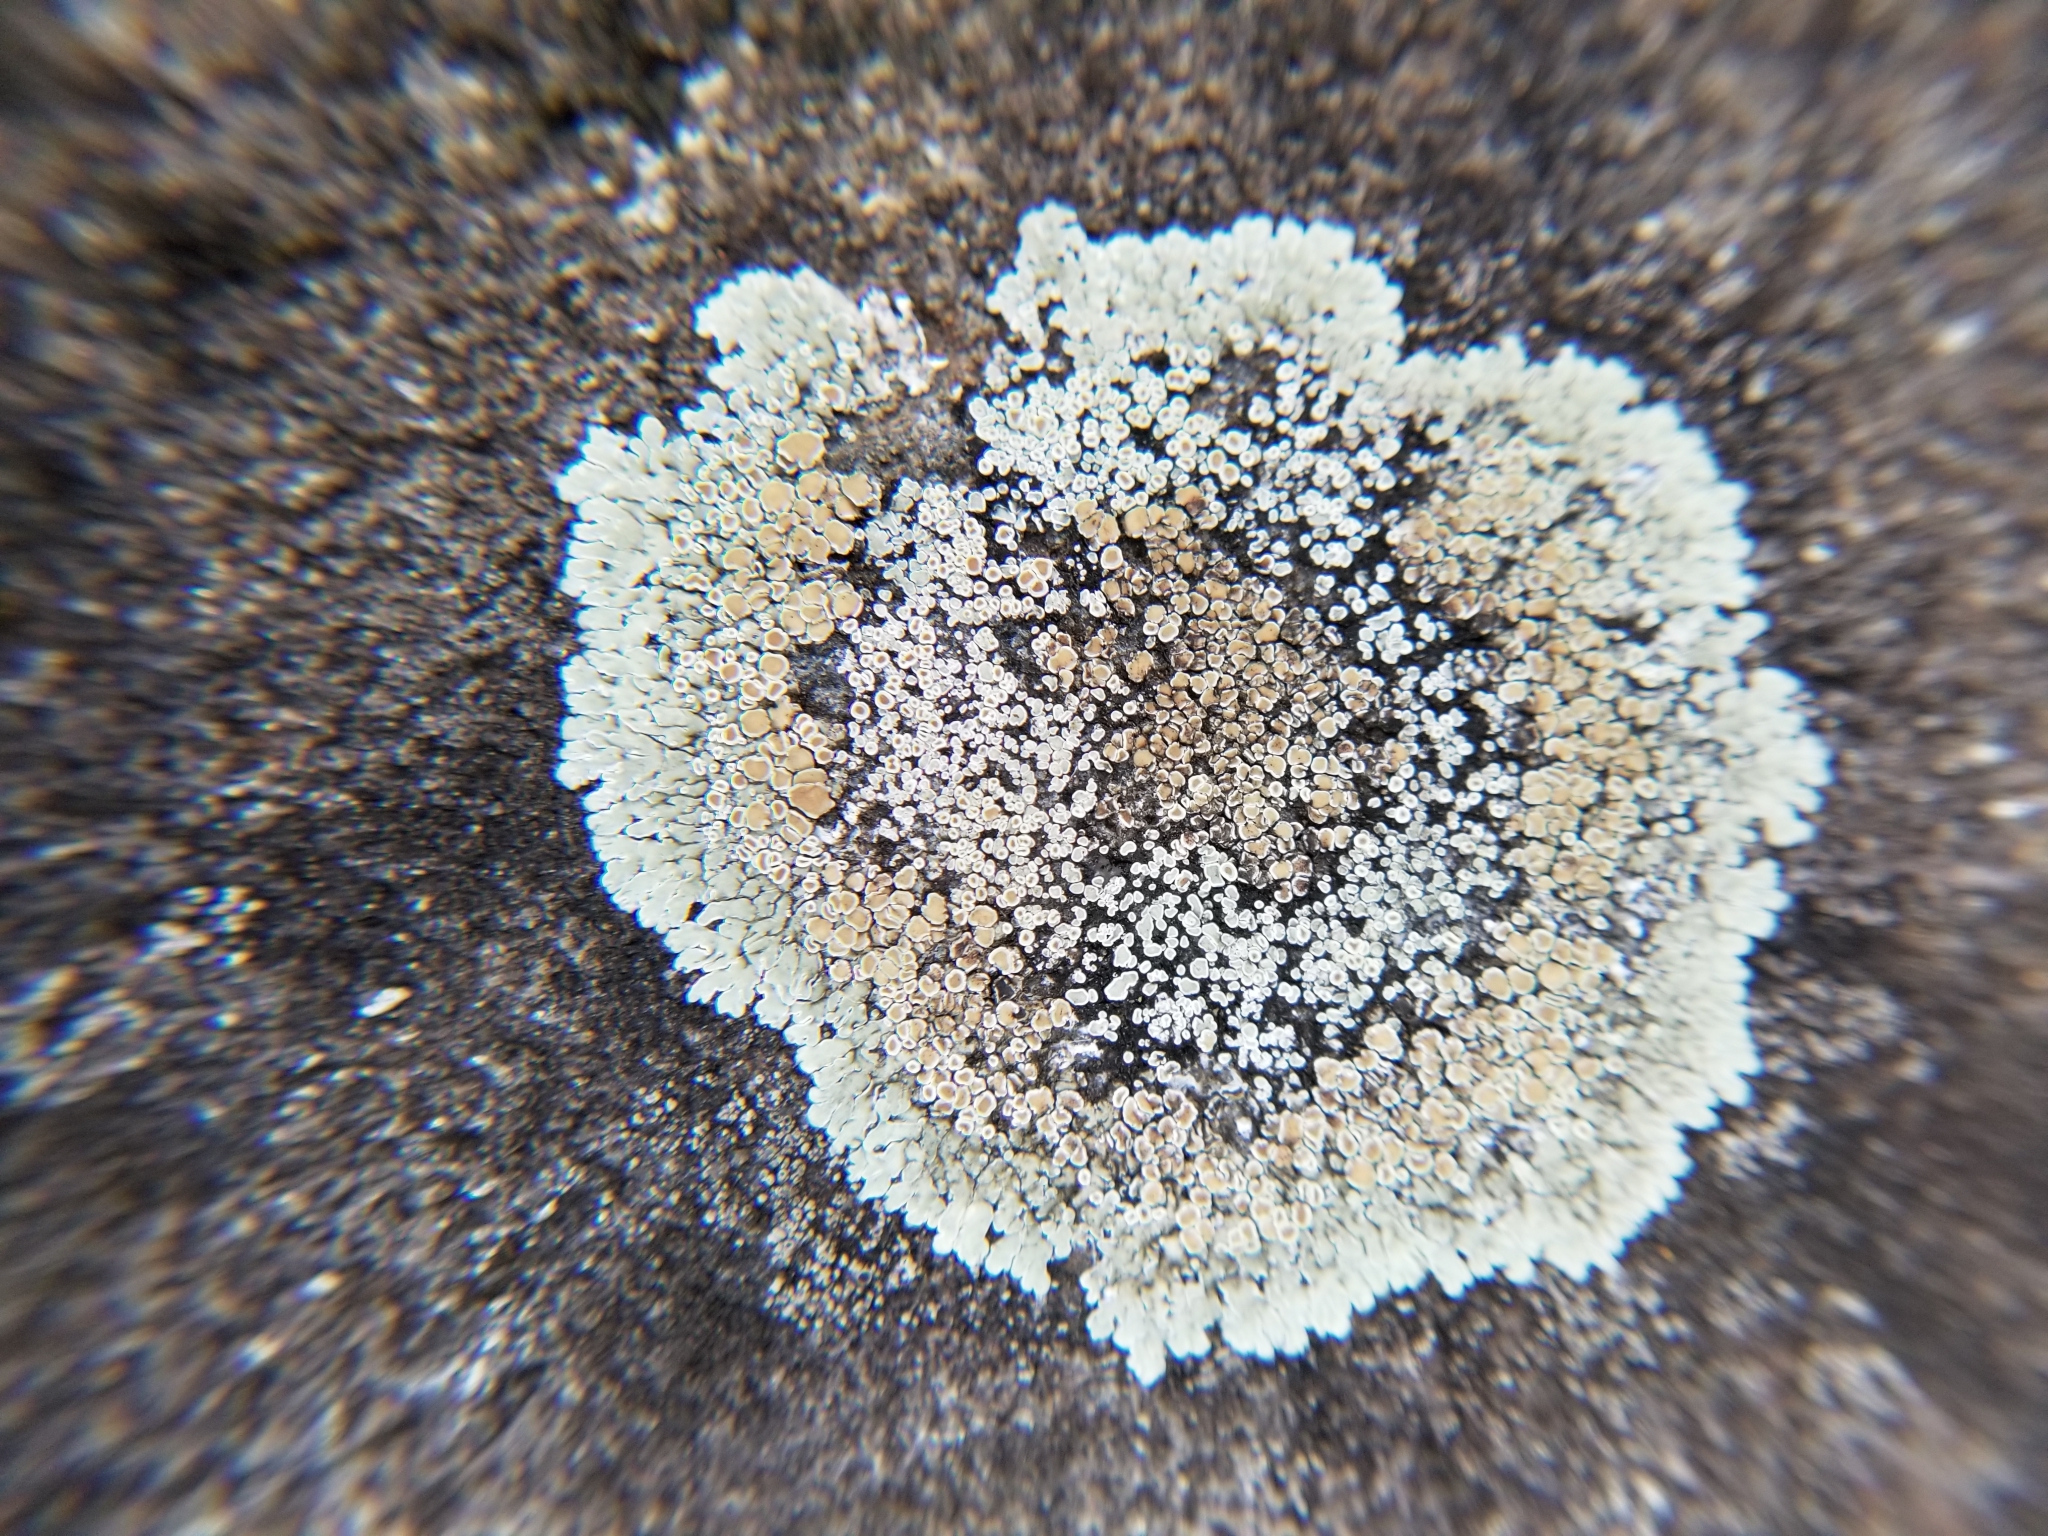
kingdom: Fungi
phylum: Ascomycota
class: Lecanoromycetes
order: Lecanorales
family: Lecanoraceae
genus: Protoparmeliopsis
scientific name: Protoparmeliopsis muralis
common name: Stonewall rim lichen
